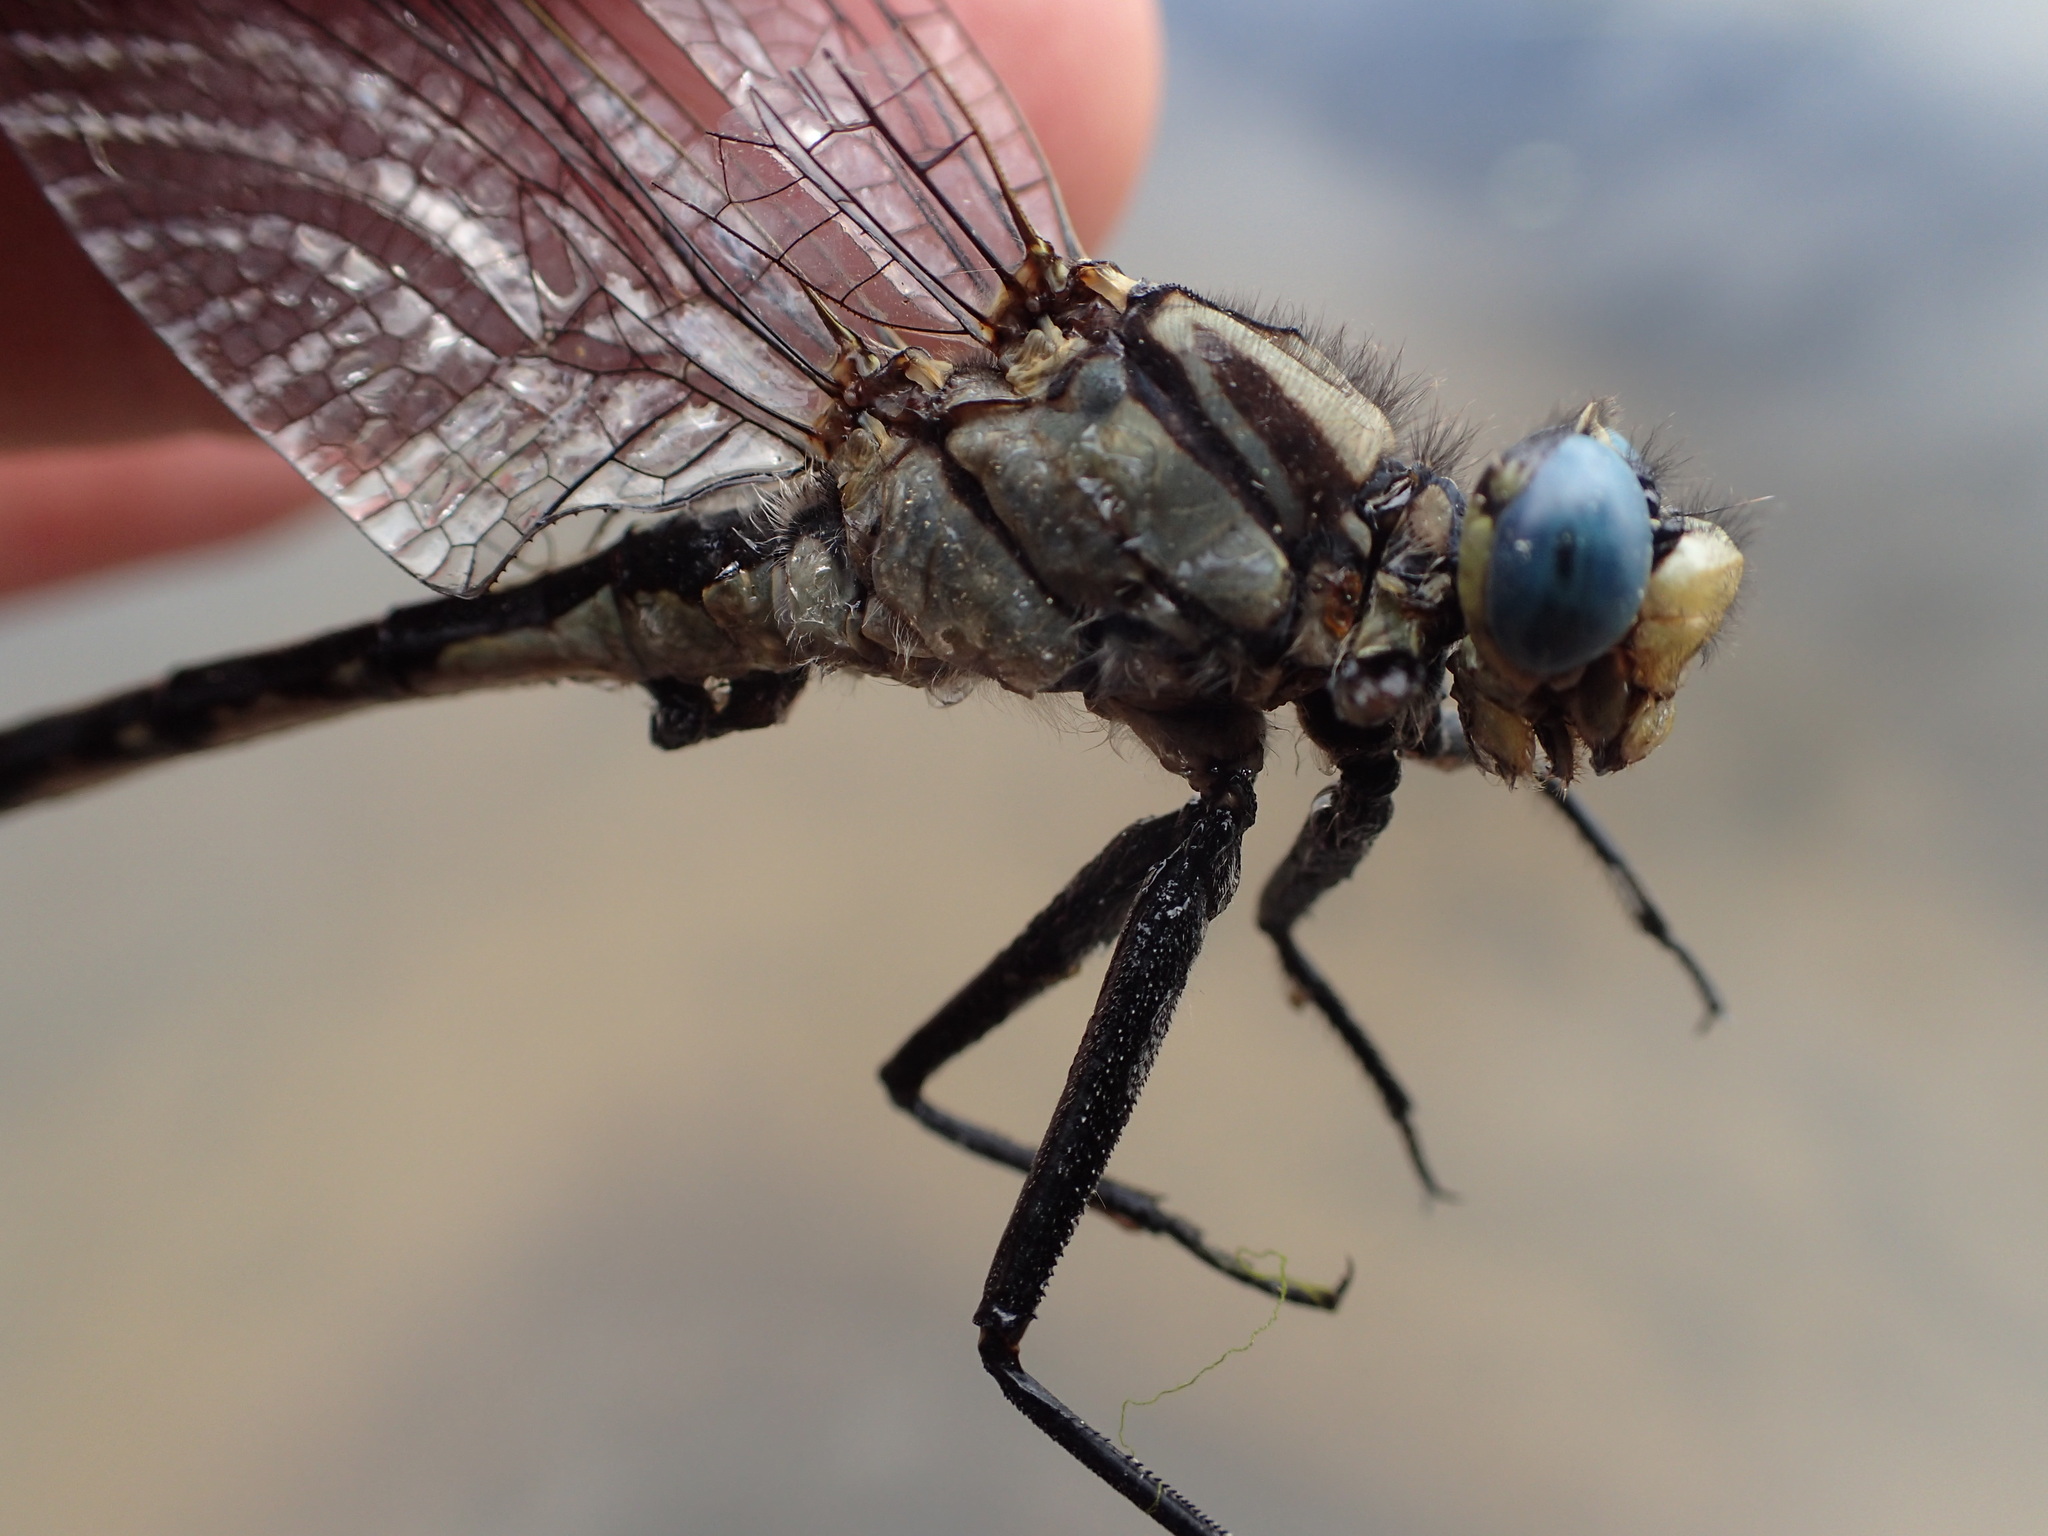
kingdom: Animalia
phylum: Arthropoda
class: Insecta
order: Odonata
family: Gomphidae
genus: Arigomphus
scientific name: Arigomphus cornutus
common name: Horned clubtail
